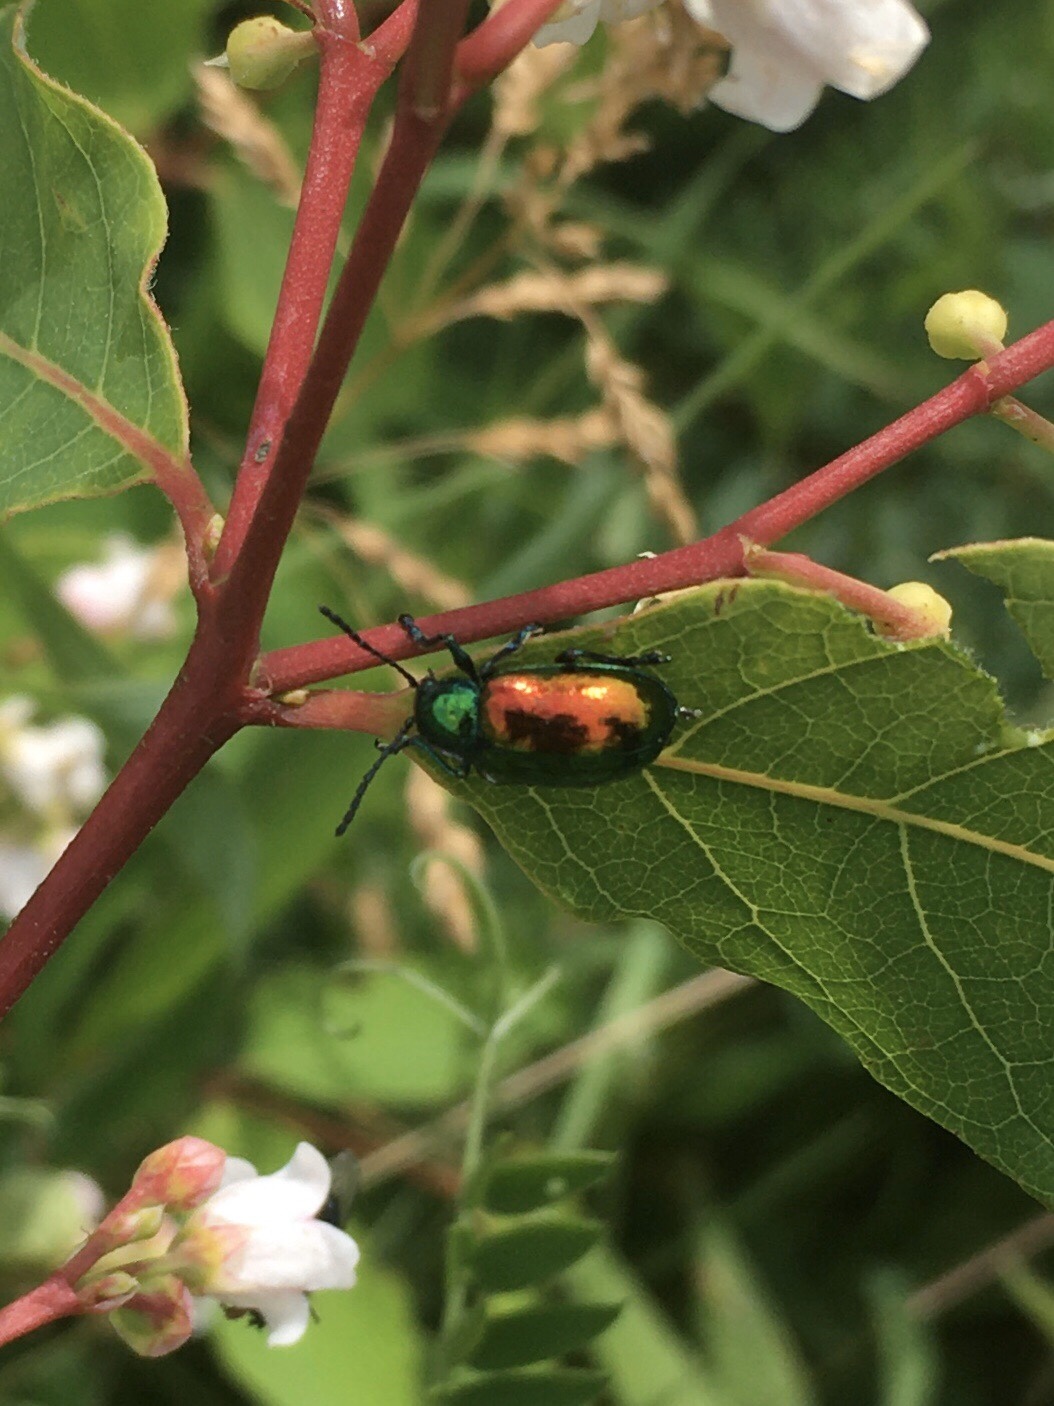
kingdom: Animalia
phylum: Arthropoda
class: Insecta
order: Coleoptera
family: Chrysomelidae
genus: Chrysochus
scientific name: Chrysochus auratus
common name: Dogbane leaf beetle
